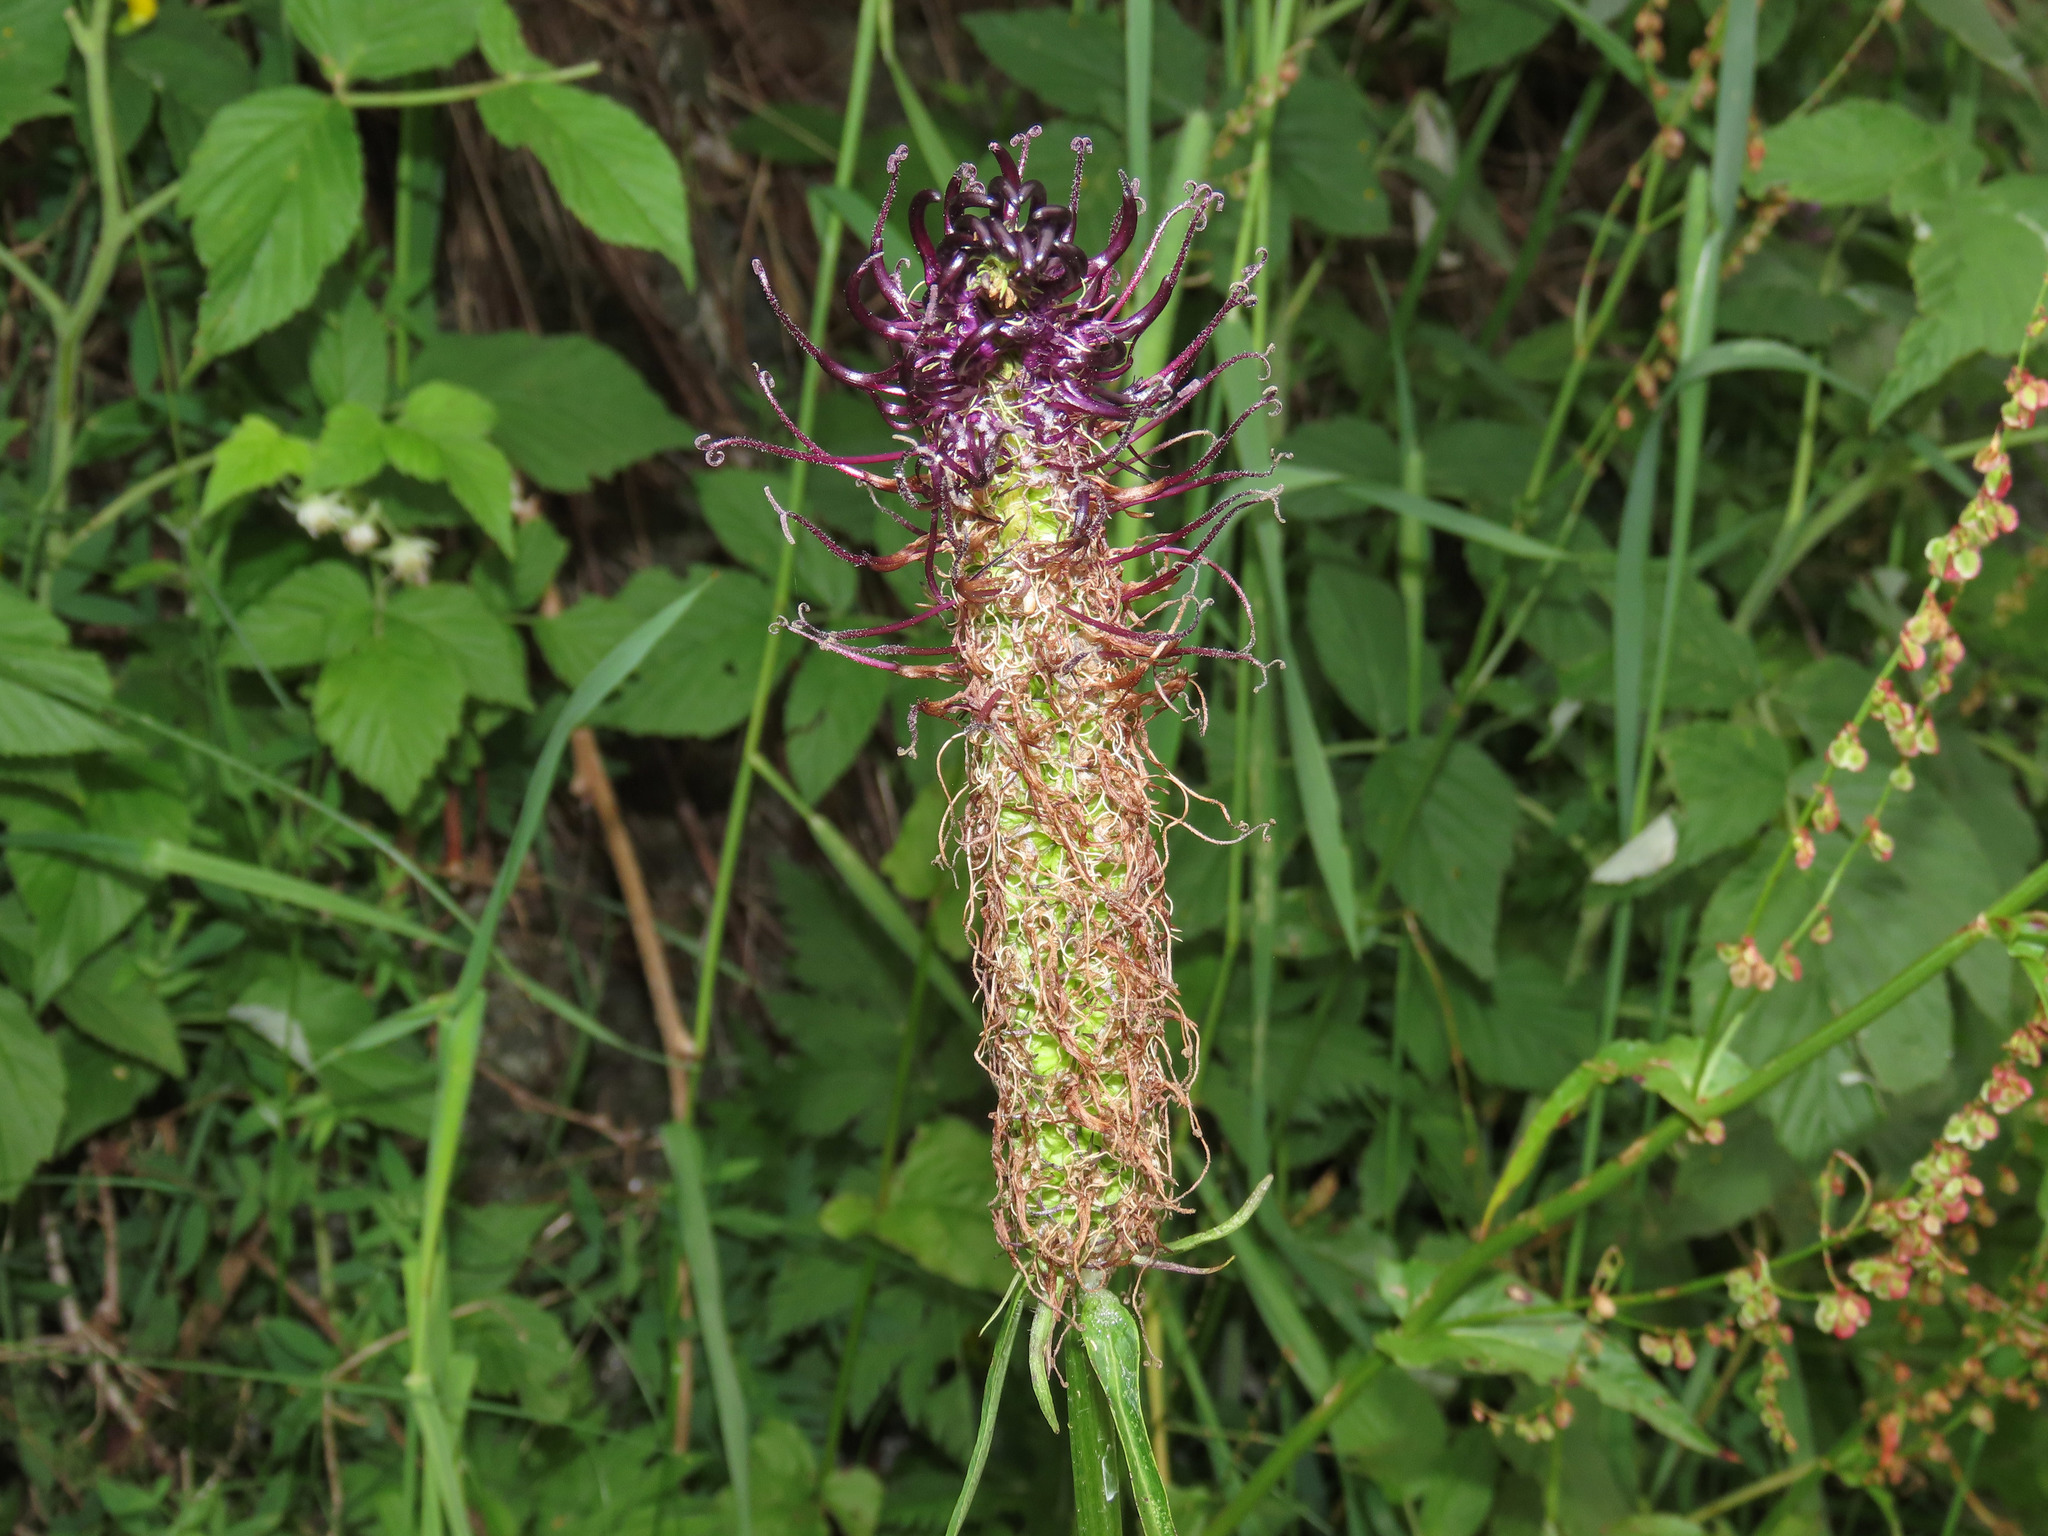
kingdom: Plantae
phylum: Tracheophyta
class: Magnoliopsida
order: Asterales
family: Campanulaceae
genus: Phyteuma
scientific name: Phyteuma ovatum
